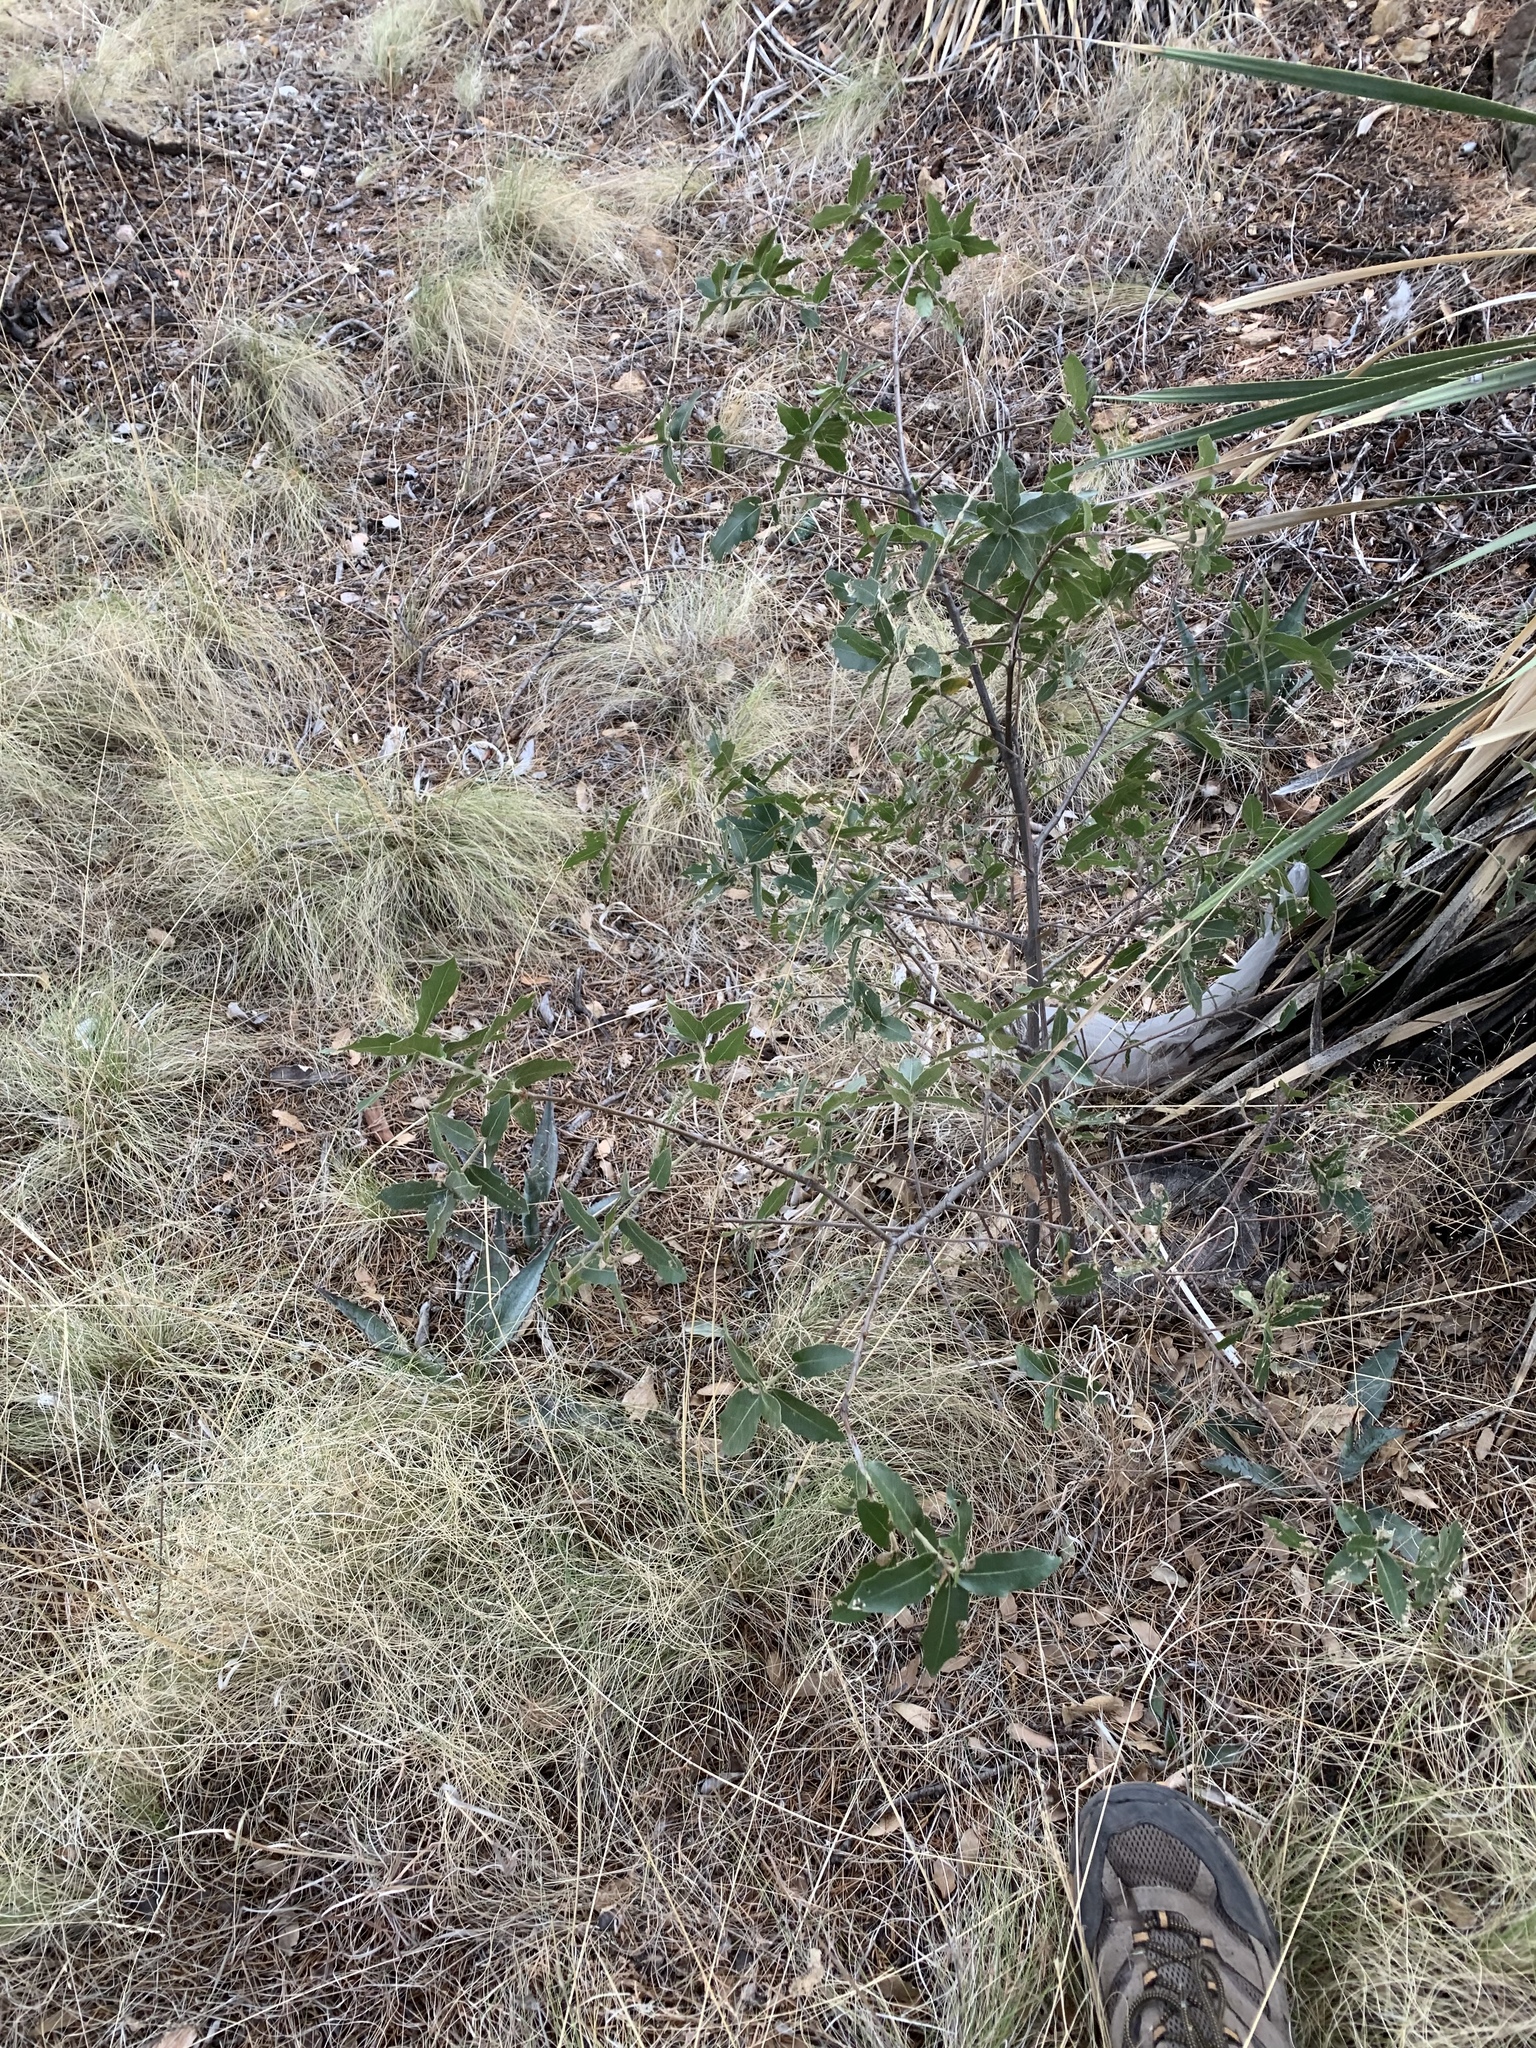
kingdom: Plantae
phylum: Tracheophyta
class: Magnoliopsida
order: Fagales
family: Fagaceae
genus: Quercus
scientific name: Quercus emoryi
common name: Emory oak
